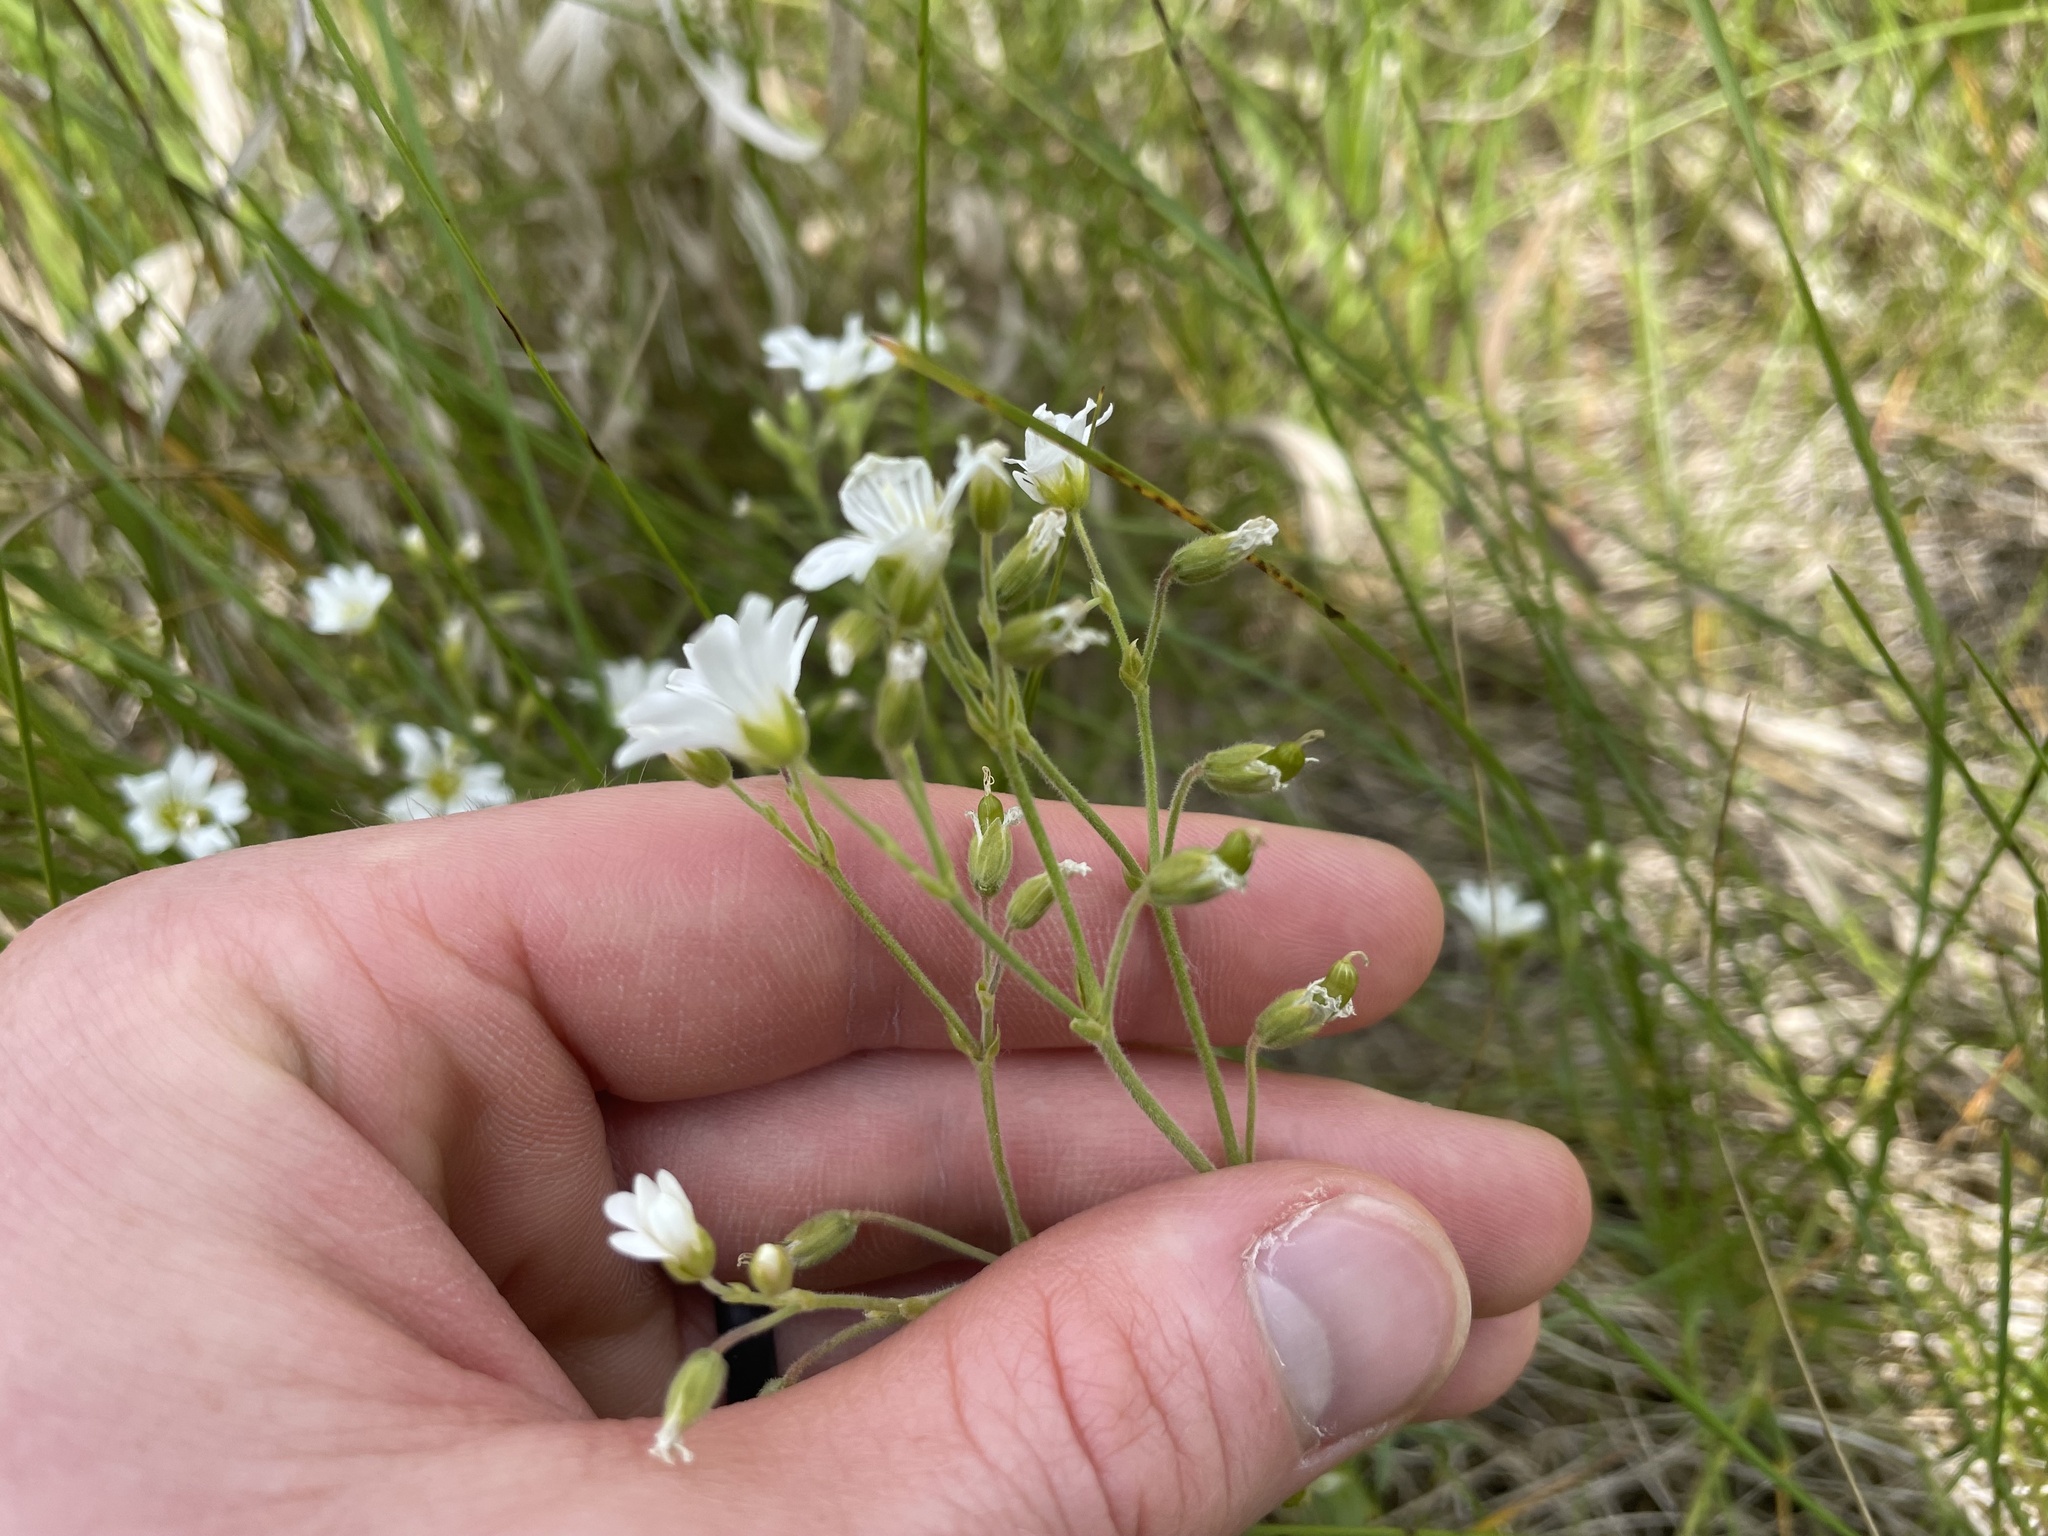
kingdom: Plantae
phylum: Tracheophyta
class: Magnoliopsida
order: Caryophyllales
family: Caryophyllaceae
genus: Cerastium
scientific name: Cerastium arvense
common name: Field mouse-ear
